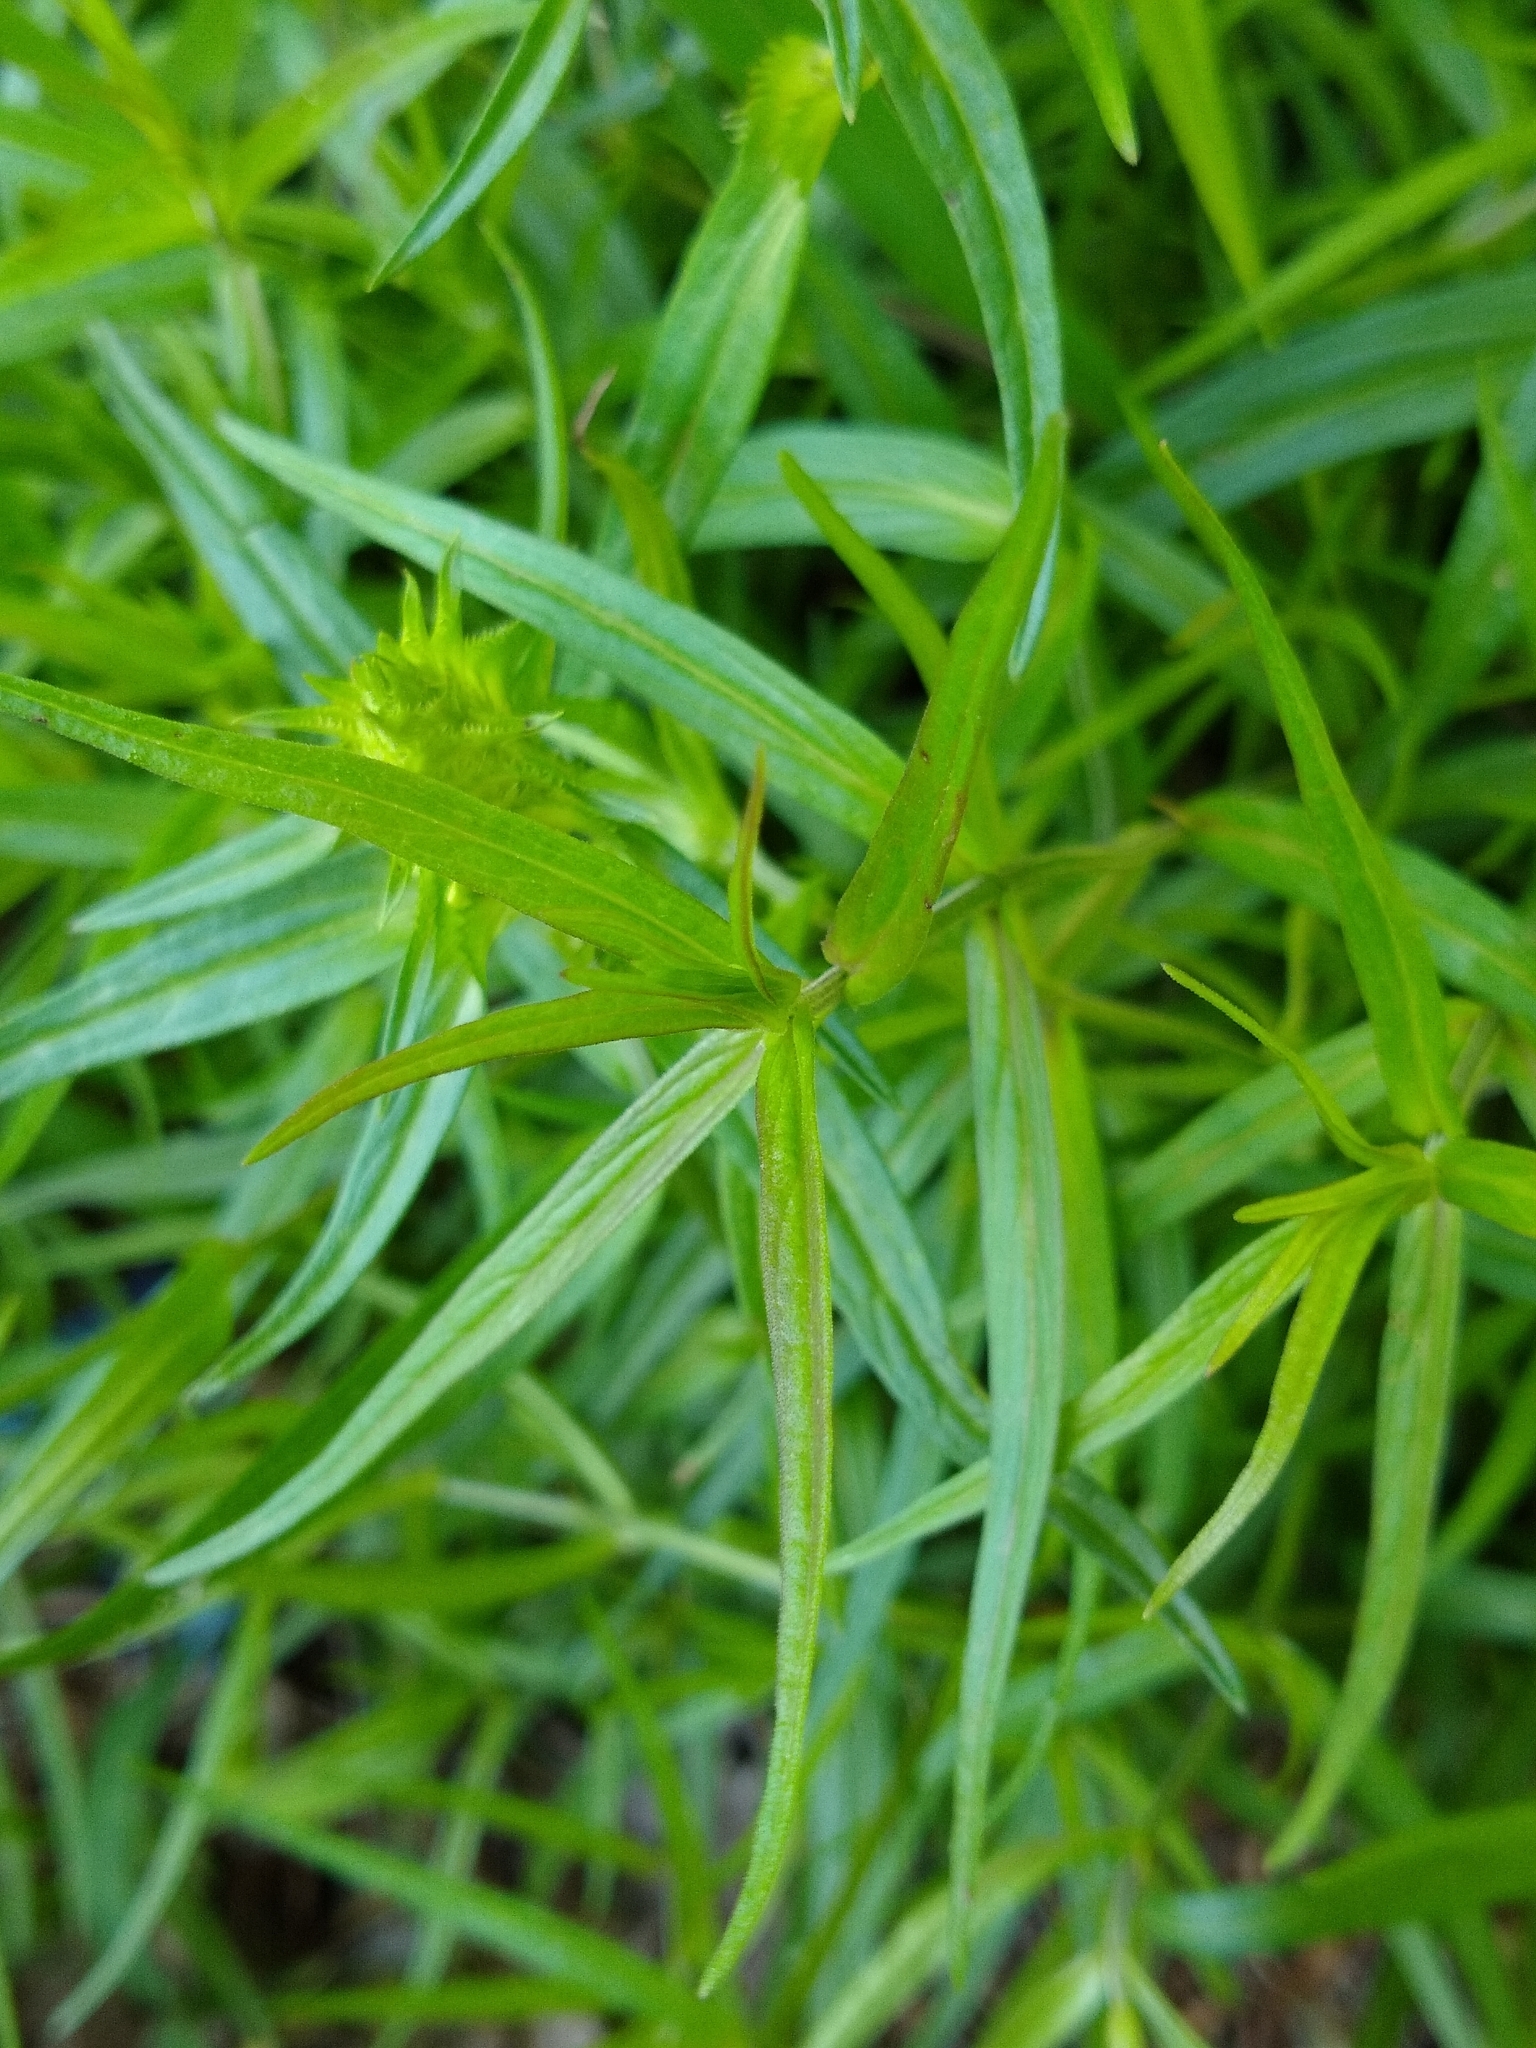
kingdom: Plantae
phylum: Tracheophyta
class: Magnoliopsida
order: Lamiales
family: Orobanchaceae
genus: Melampyrum
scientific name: Melampyrum cristatum
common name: Crested cow-wheat
